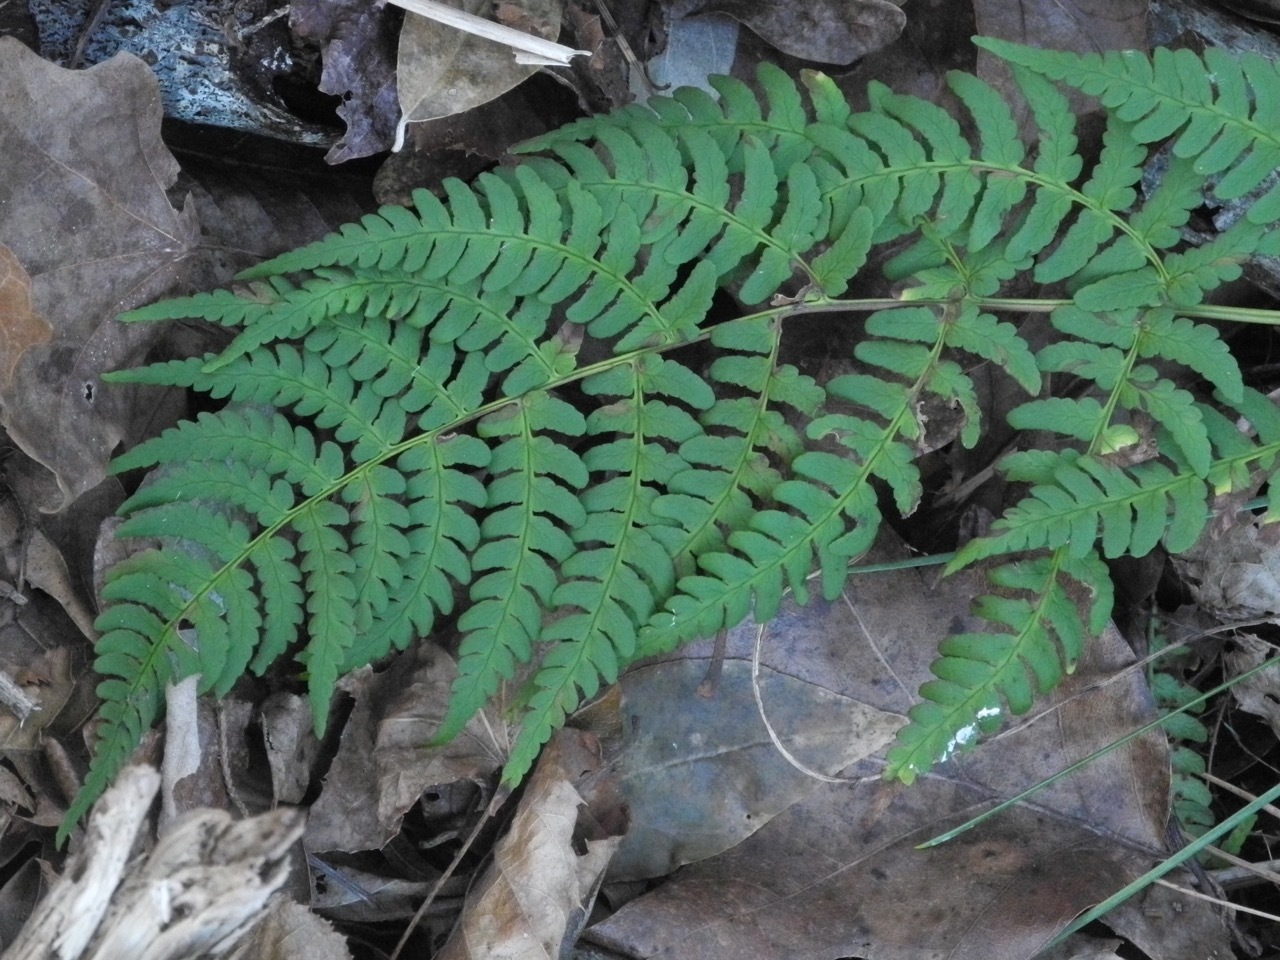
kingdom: Plantae
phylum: Tracheophyta
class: Polypodiopsida
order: Polypodiales
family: Dryopteridaceae
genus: Dryopteris
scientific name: Dryopteris marginalis
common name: Marginal wood fern
